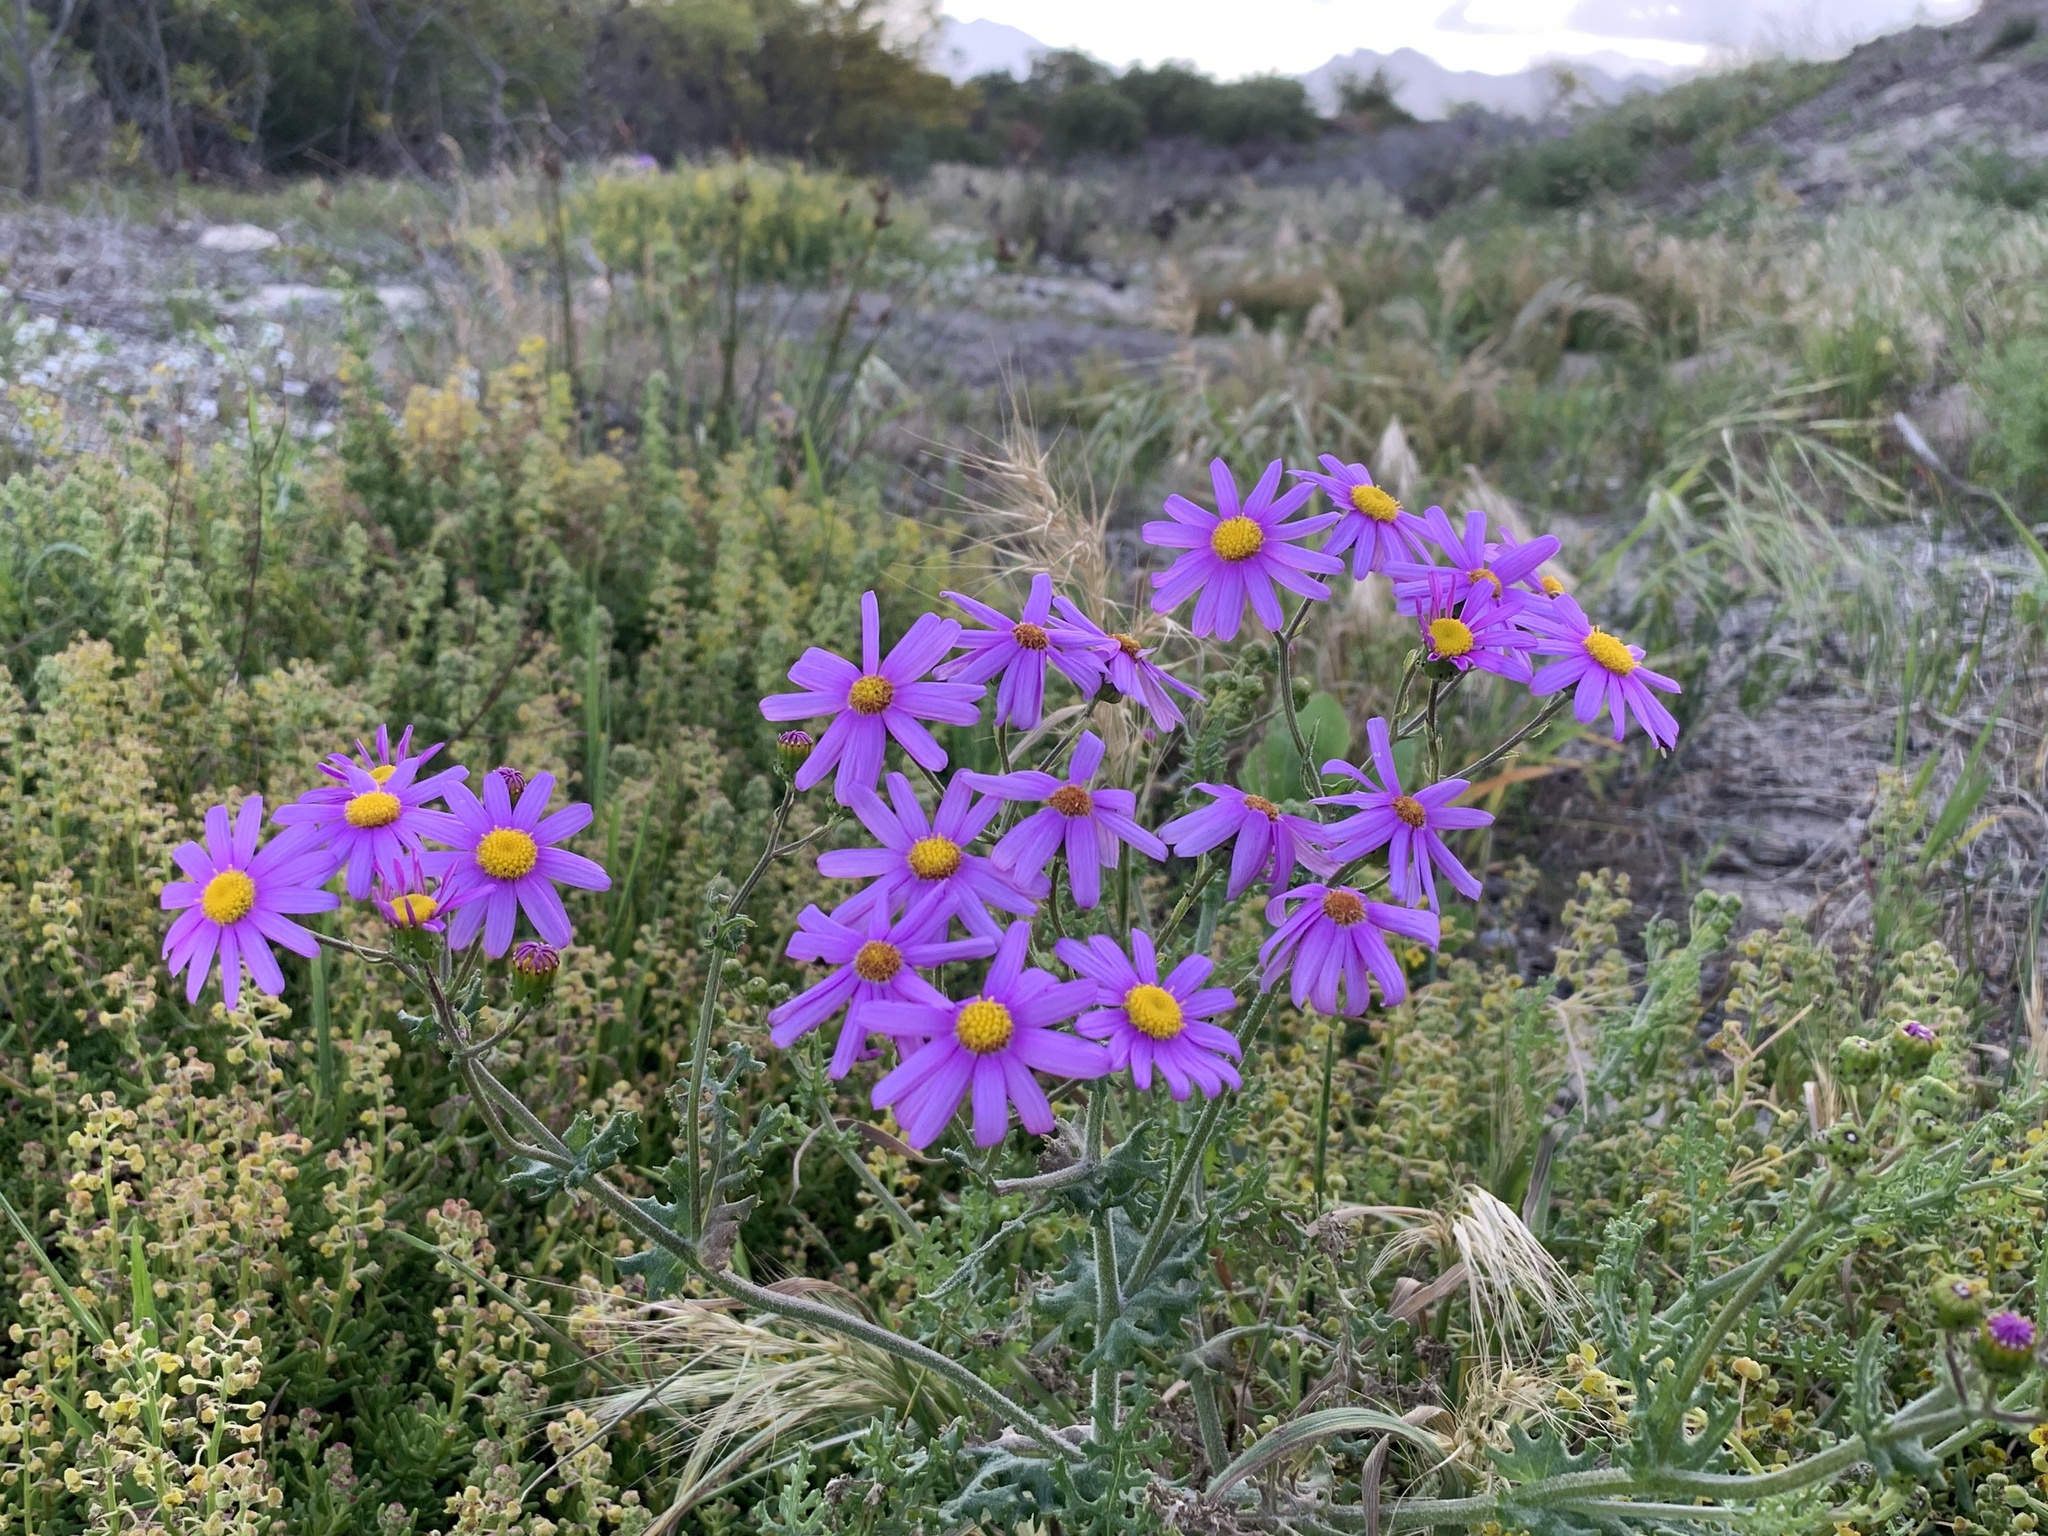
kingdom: Plantae
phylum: Tracheophyta
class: Magnoliopsida
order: Asterales
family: Asteraceae
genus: Senecio
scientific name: Senecio elegans
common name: Purple groundsel
